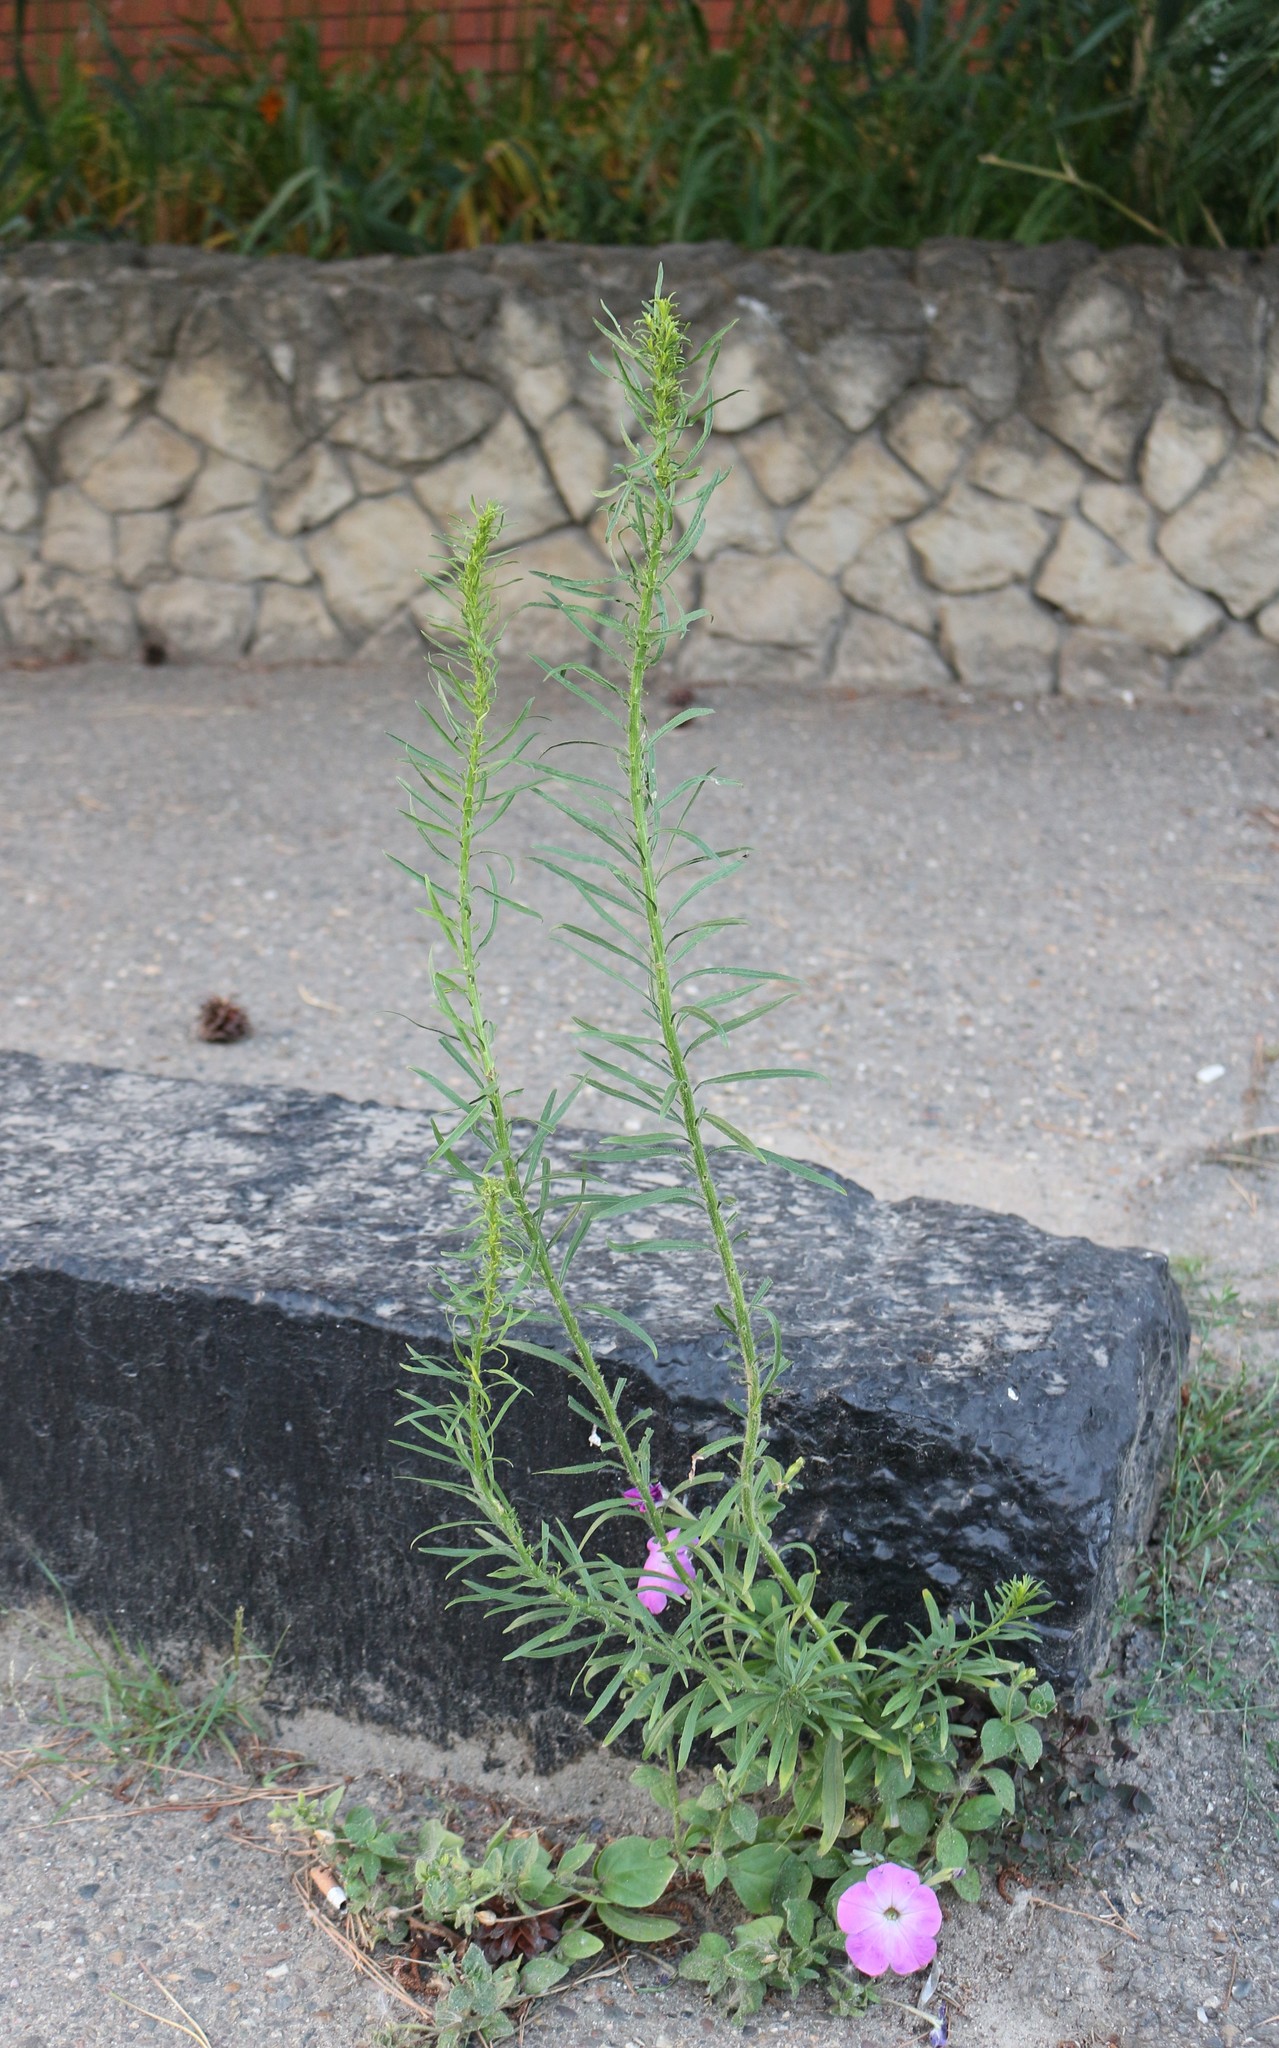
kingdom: Plantae
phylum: Tracheophyta
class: Magnoliopsida
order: Asterales
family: Asteraceae
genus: Erigeron
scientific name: Erigeron canadensis
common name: Canadian fleabane
